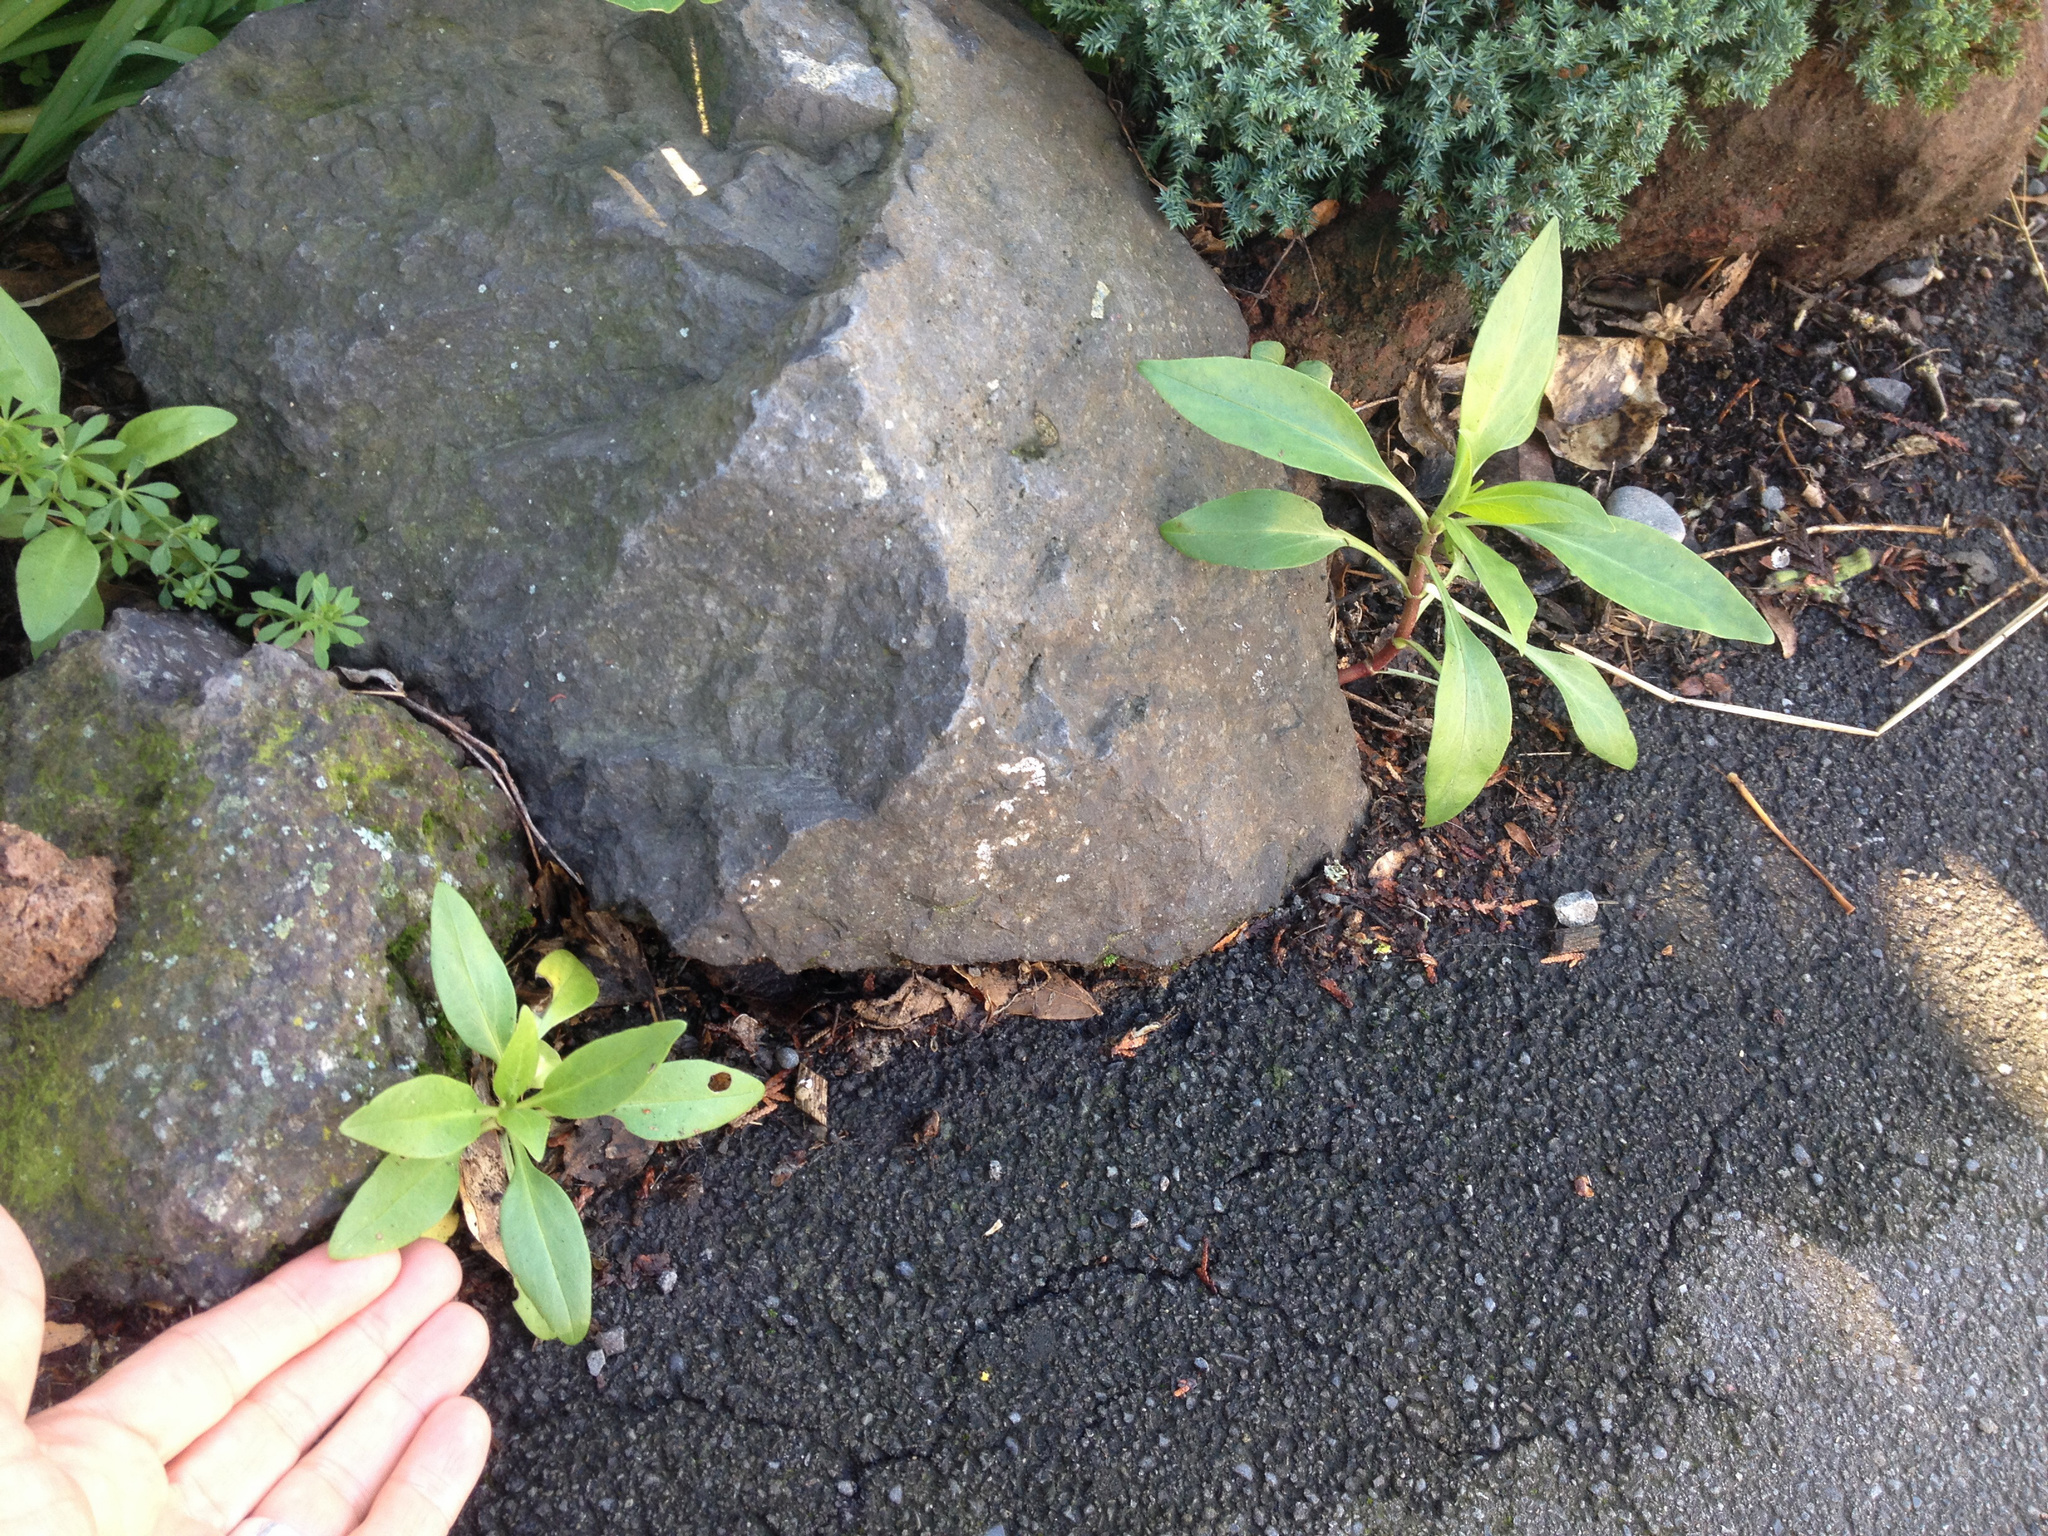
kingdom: Plantae
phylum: Tracheophyta
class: Magnoliopsida
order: Dipsacales
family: Caprifoliaceae
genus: Centranthus
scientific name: Centranthus ruber
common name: Red valerian
